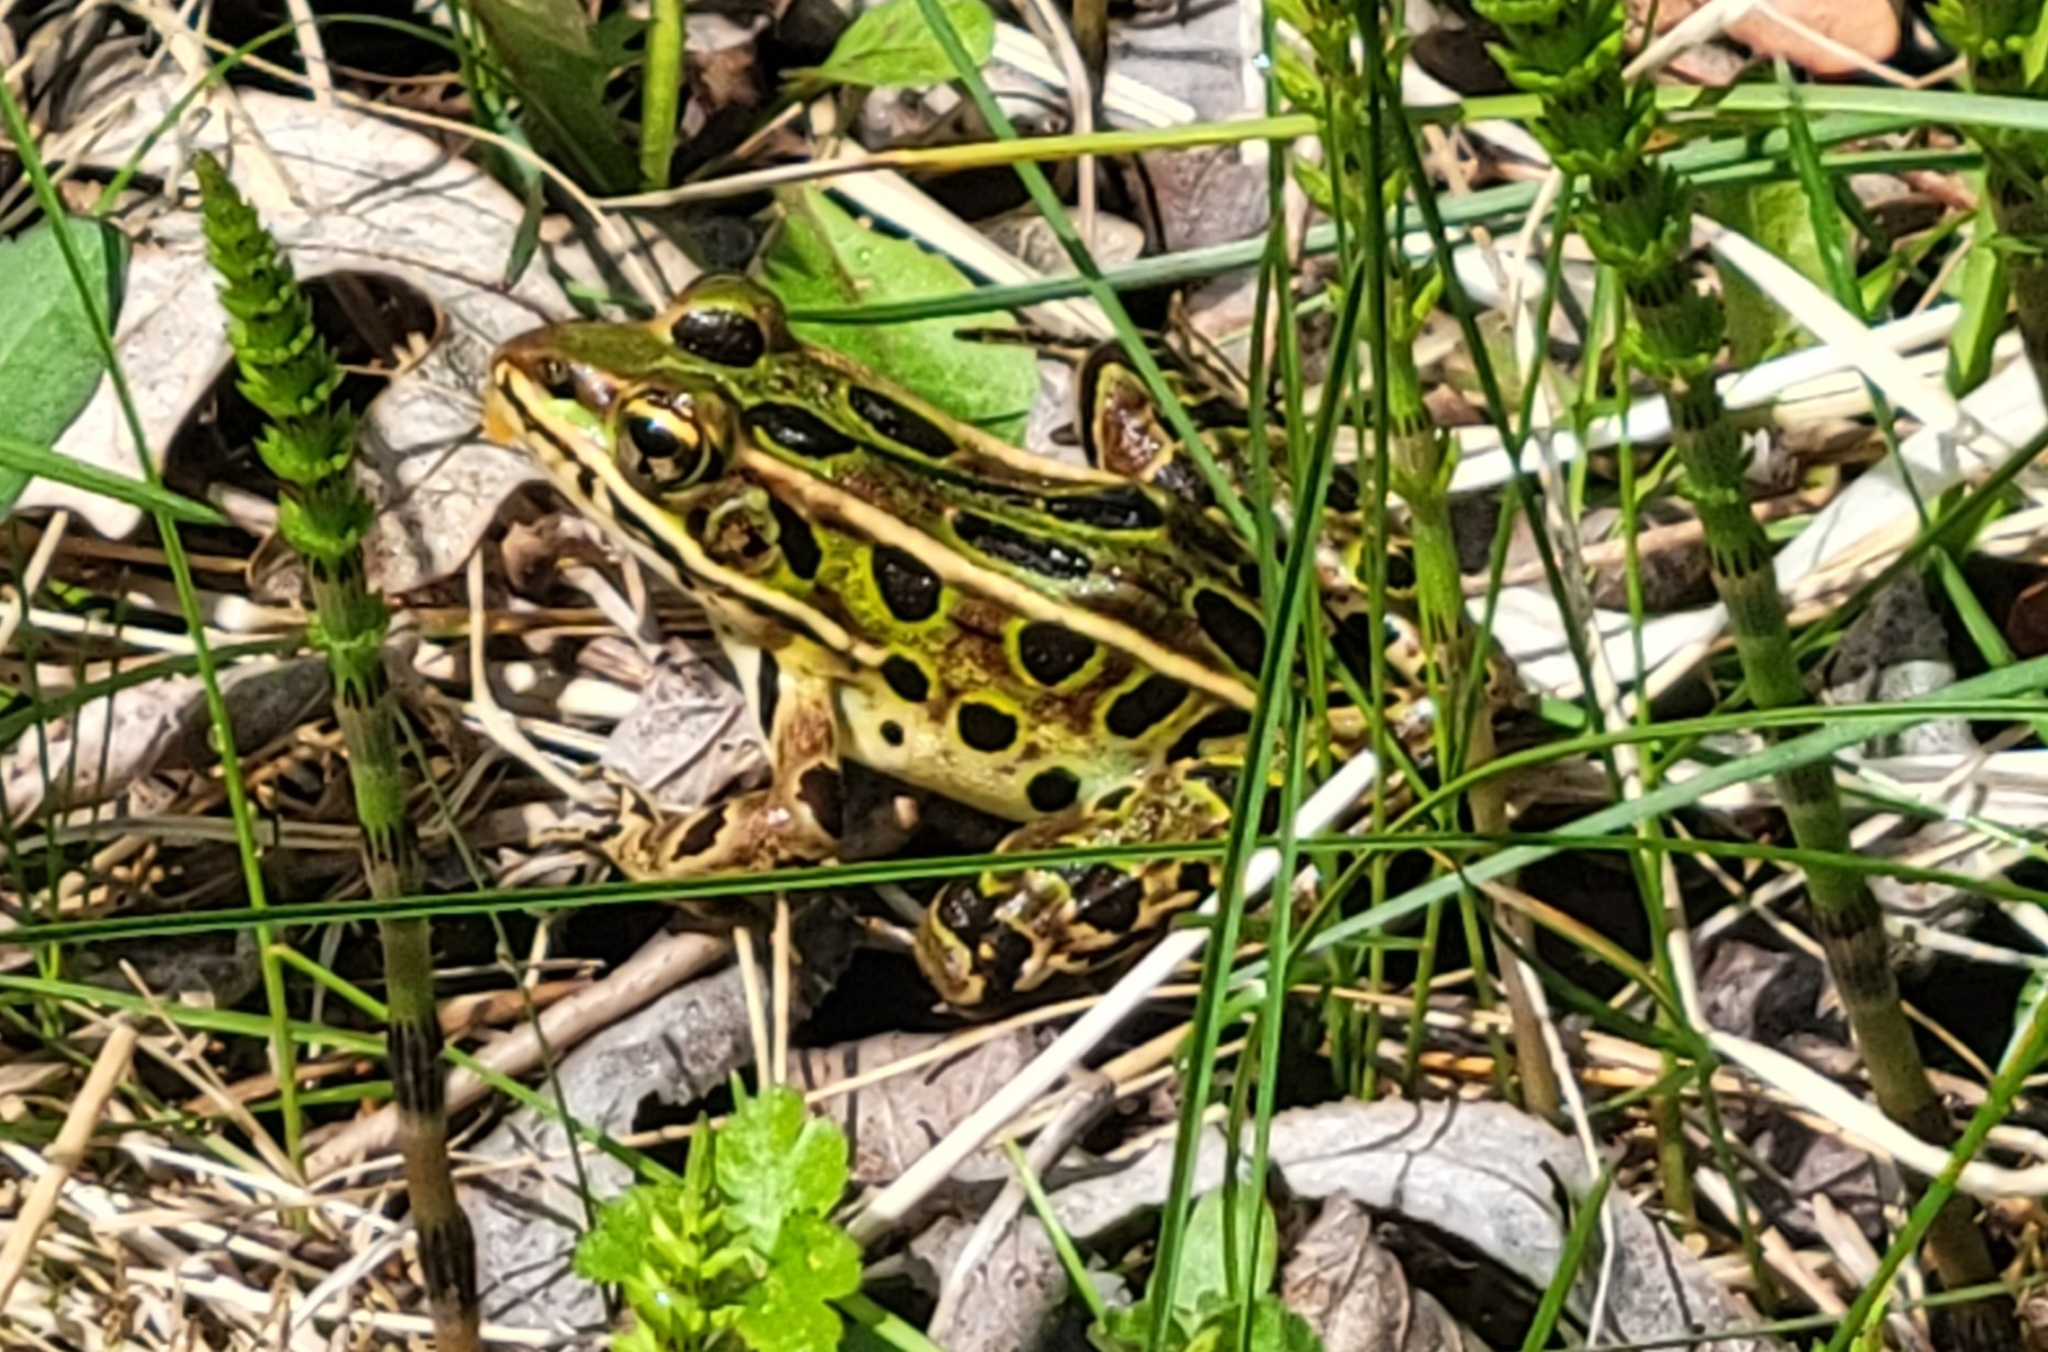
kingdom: Animalia
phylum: Chordata
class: Amphibia
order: Anura
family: Ranidae
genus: Lithobates
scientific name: Lithobates pipiens
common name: Northern leopard frog
